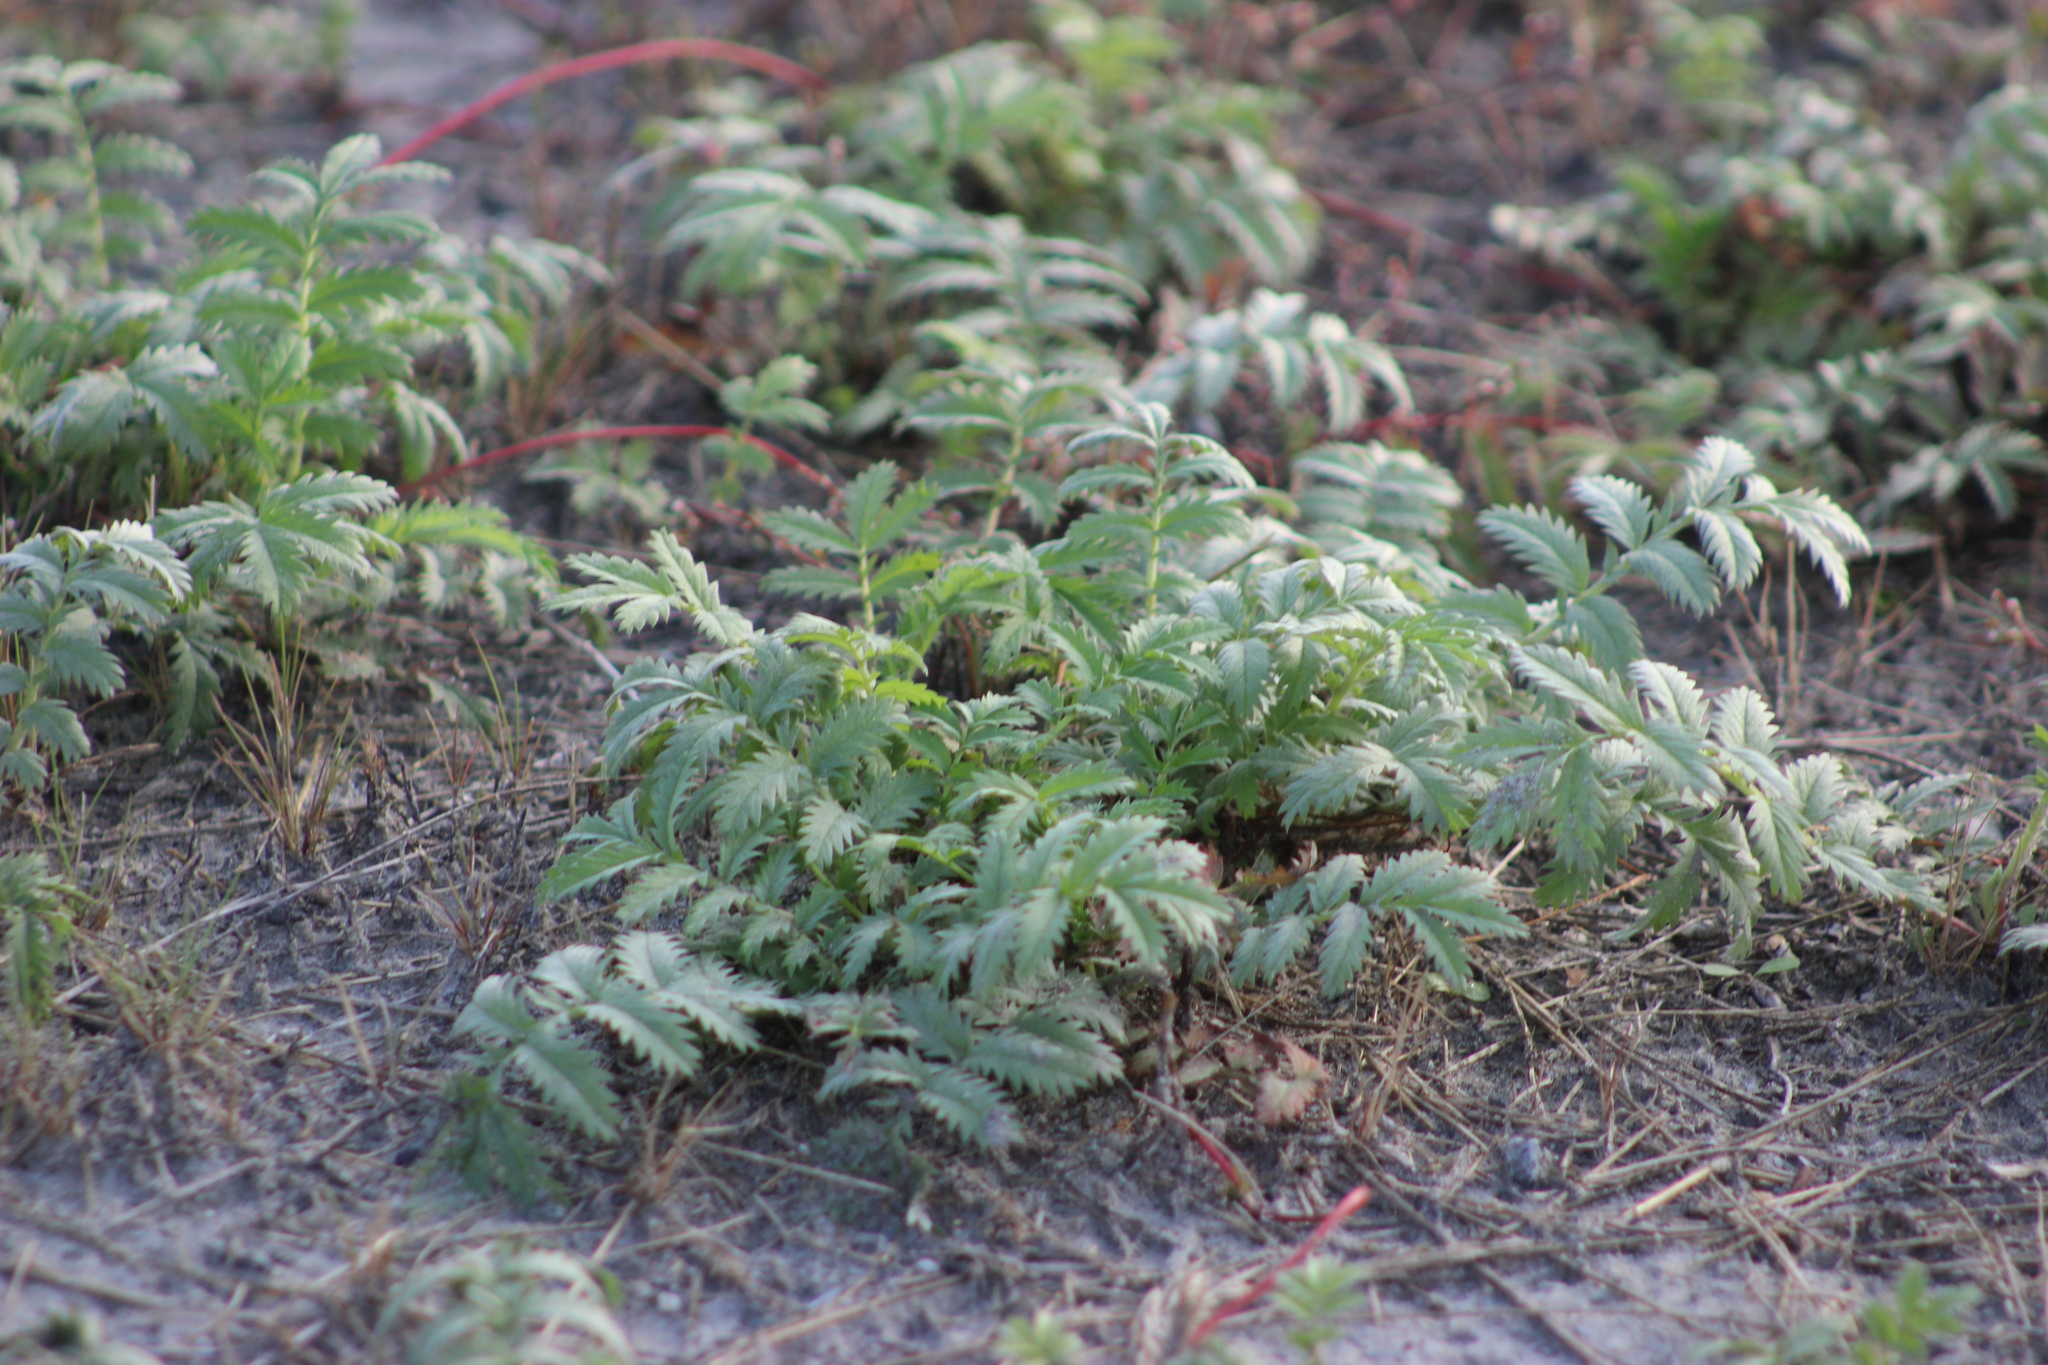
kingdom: Plantae
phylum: Tracheophyta
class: Magnoliopsida
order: Rosales
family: Rosaceae
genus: Argentina
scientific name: Argentina anserina
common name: Common silverweed
